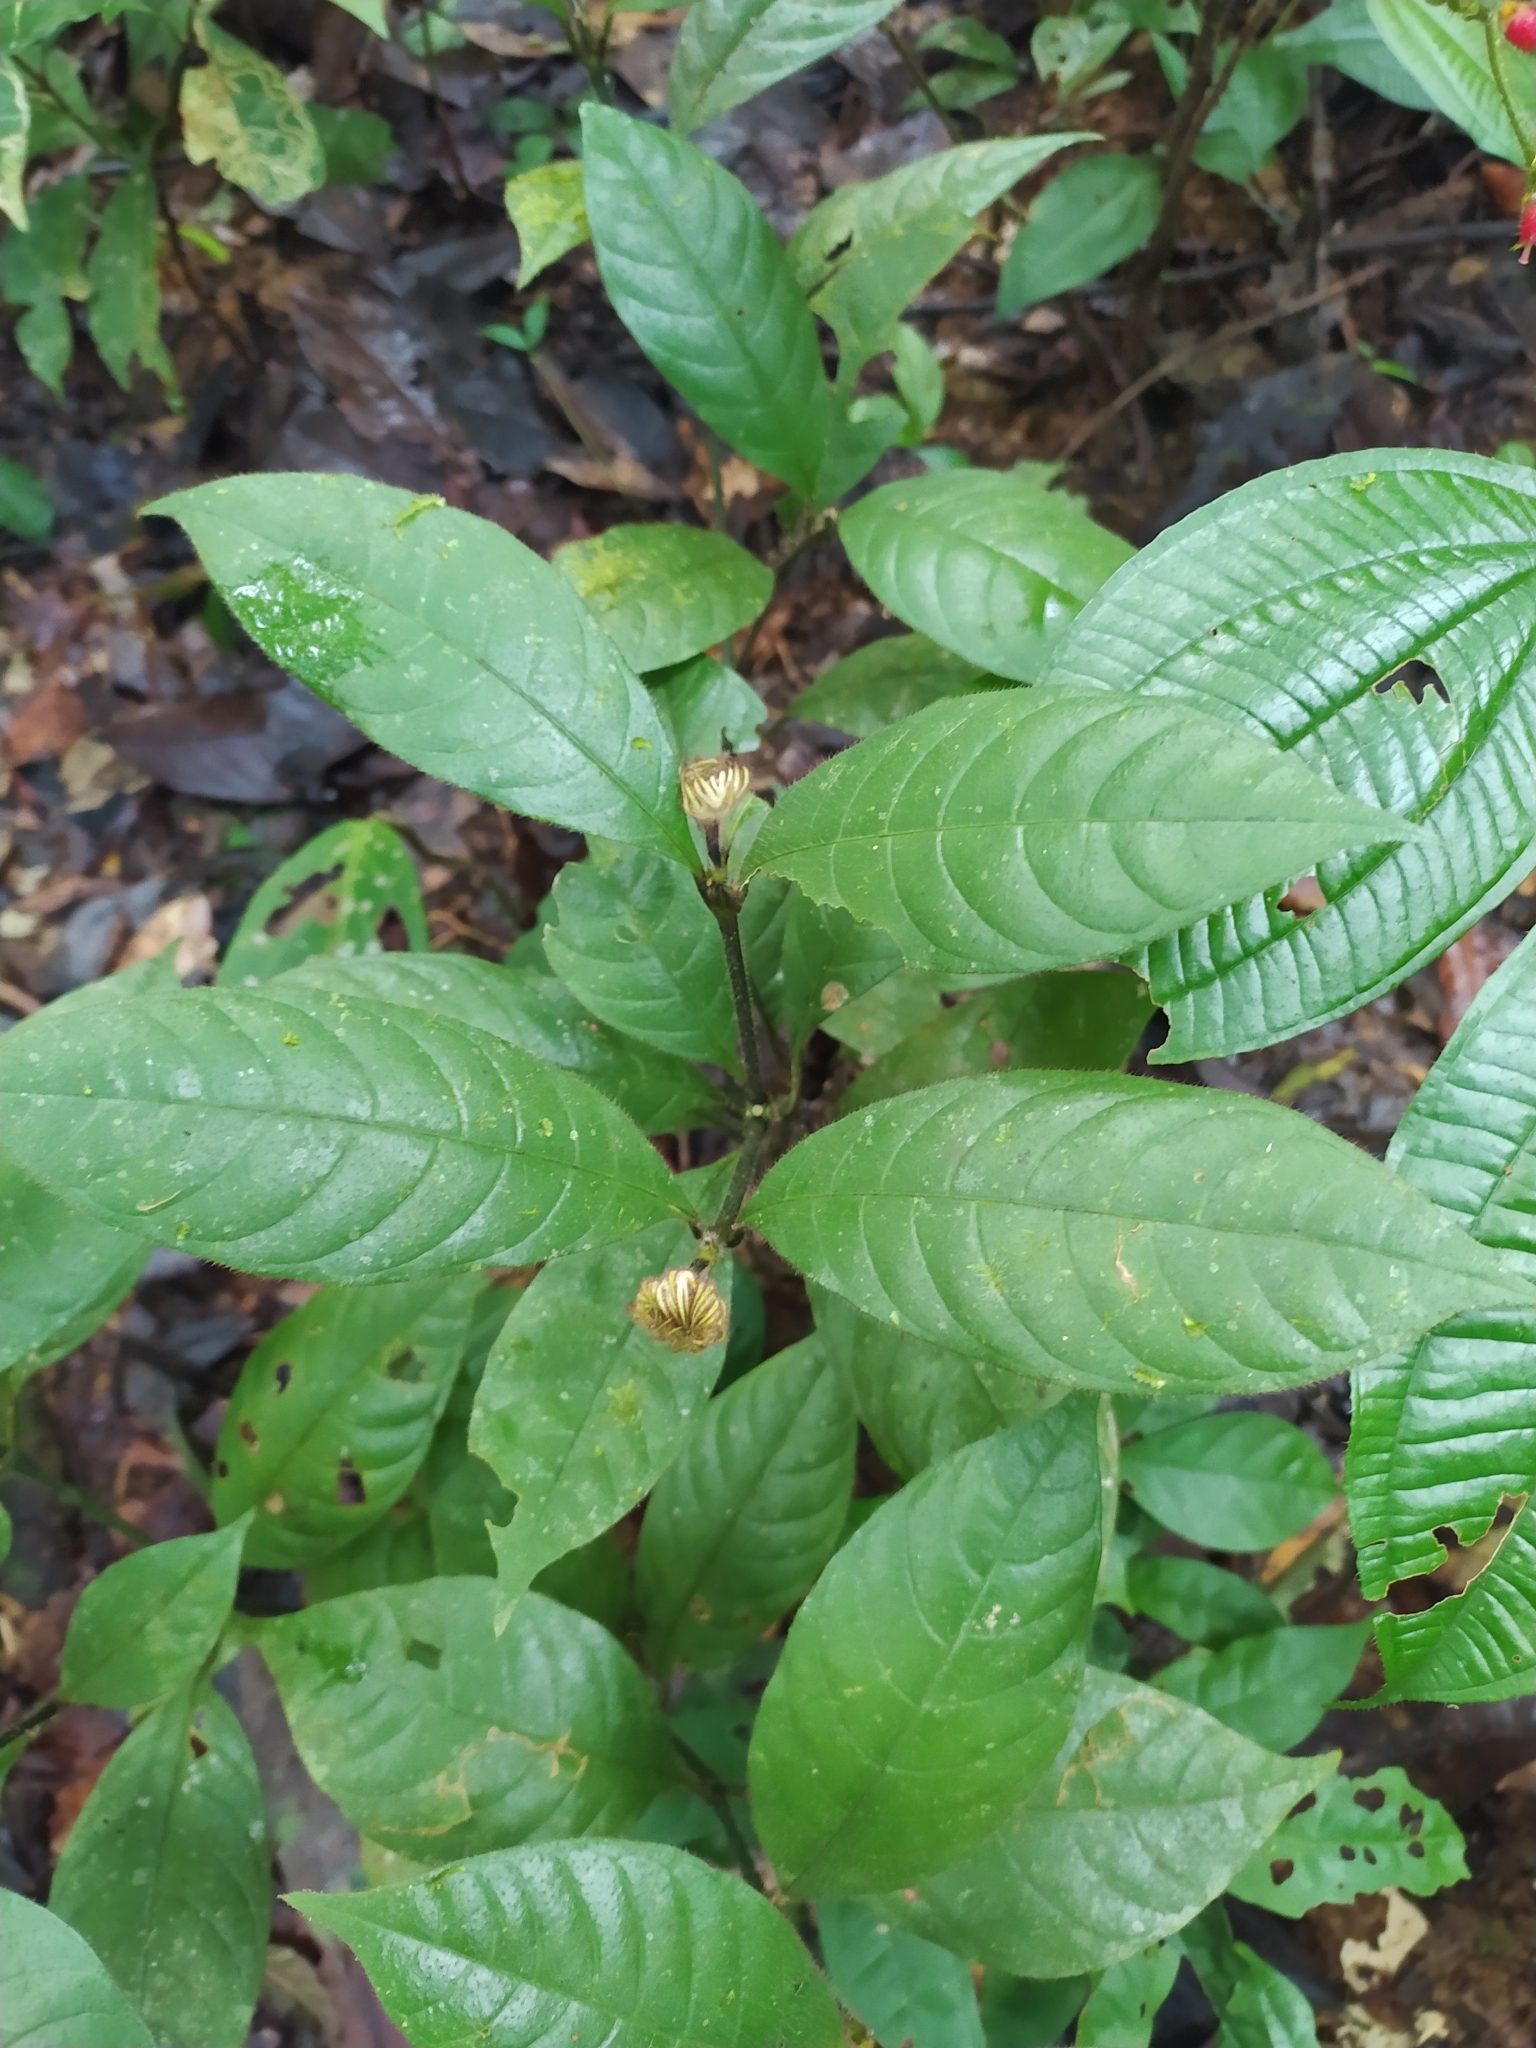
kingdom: Plantae
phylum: Tracheophyta
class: Magnoliopsida
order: Gentianales
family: Rubiaceae
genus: Palicourea
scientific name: Palicourea glabra
